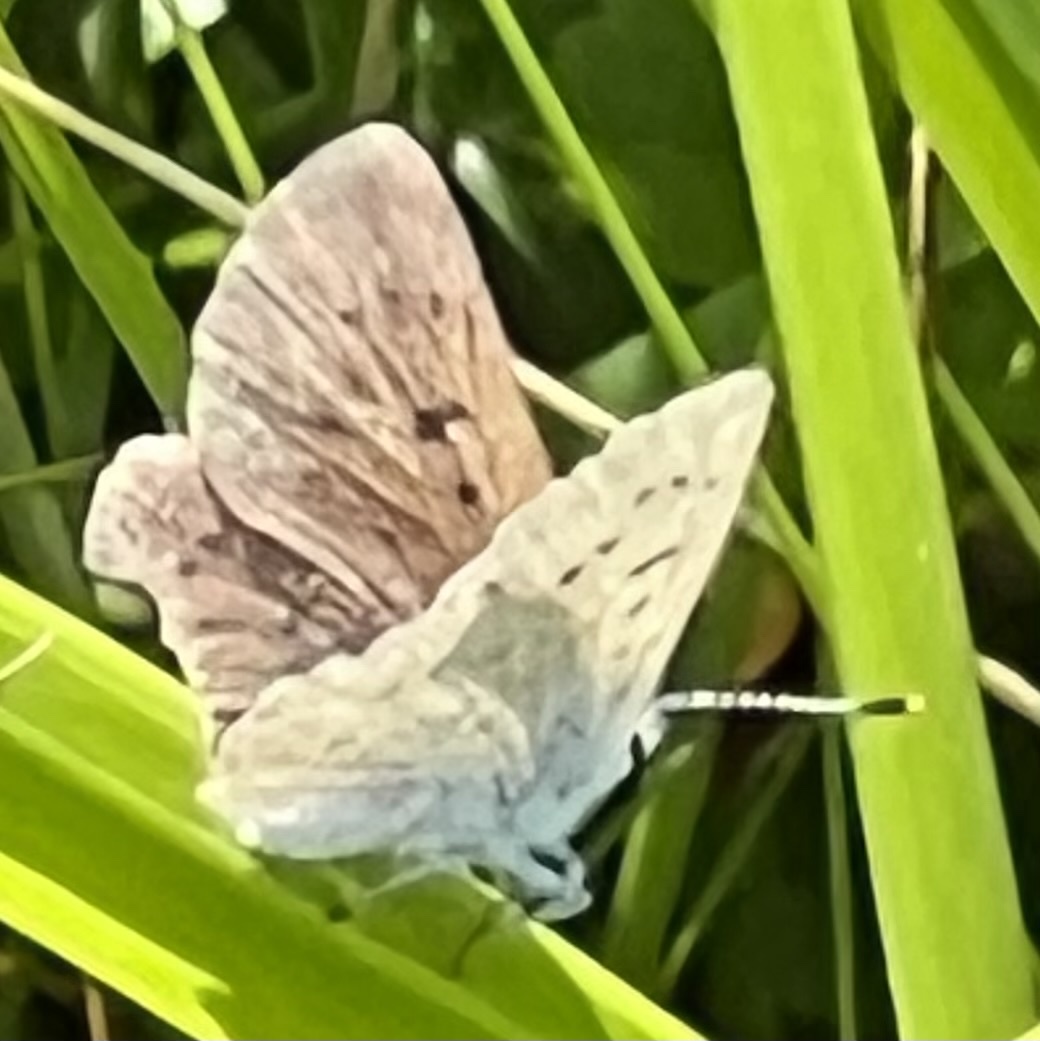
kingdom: Animalia
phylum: Arthropoda
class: Insecta
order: Lepidoptera
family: Lycaenidae
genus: Tharsalea
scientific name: Tharsalea epixanthe
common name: Bog copper
